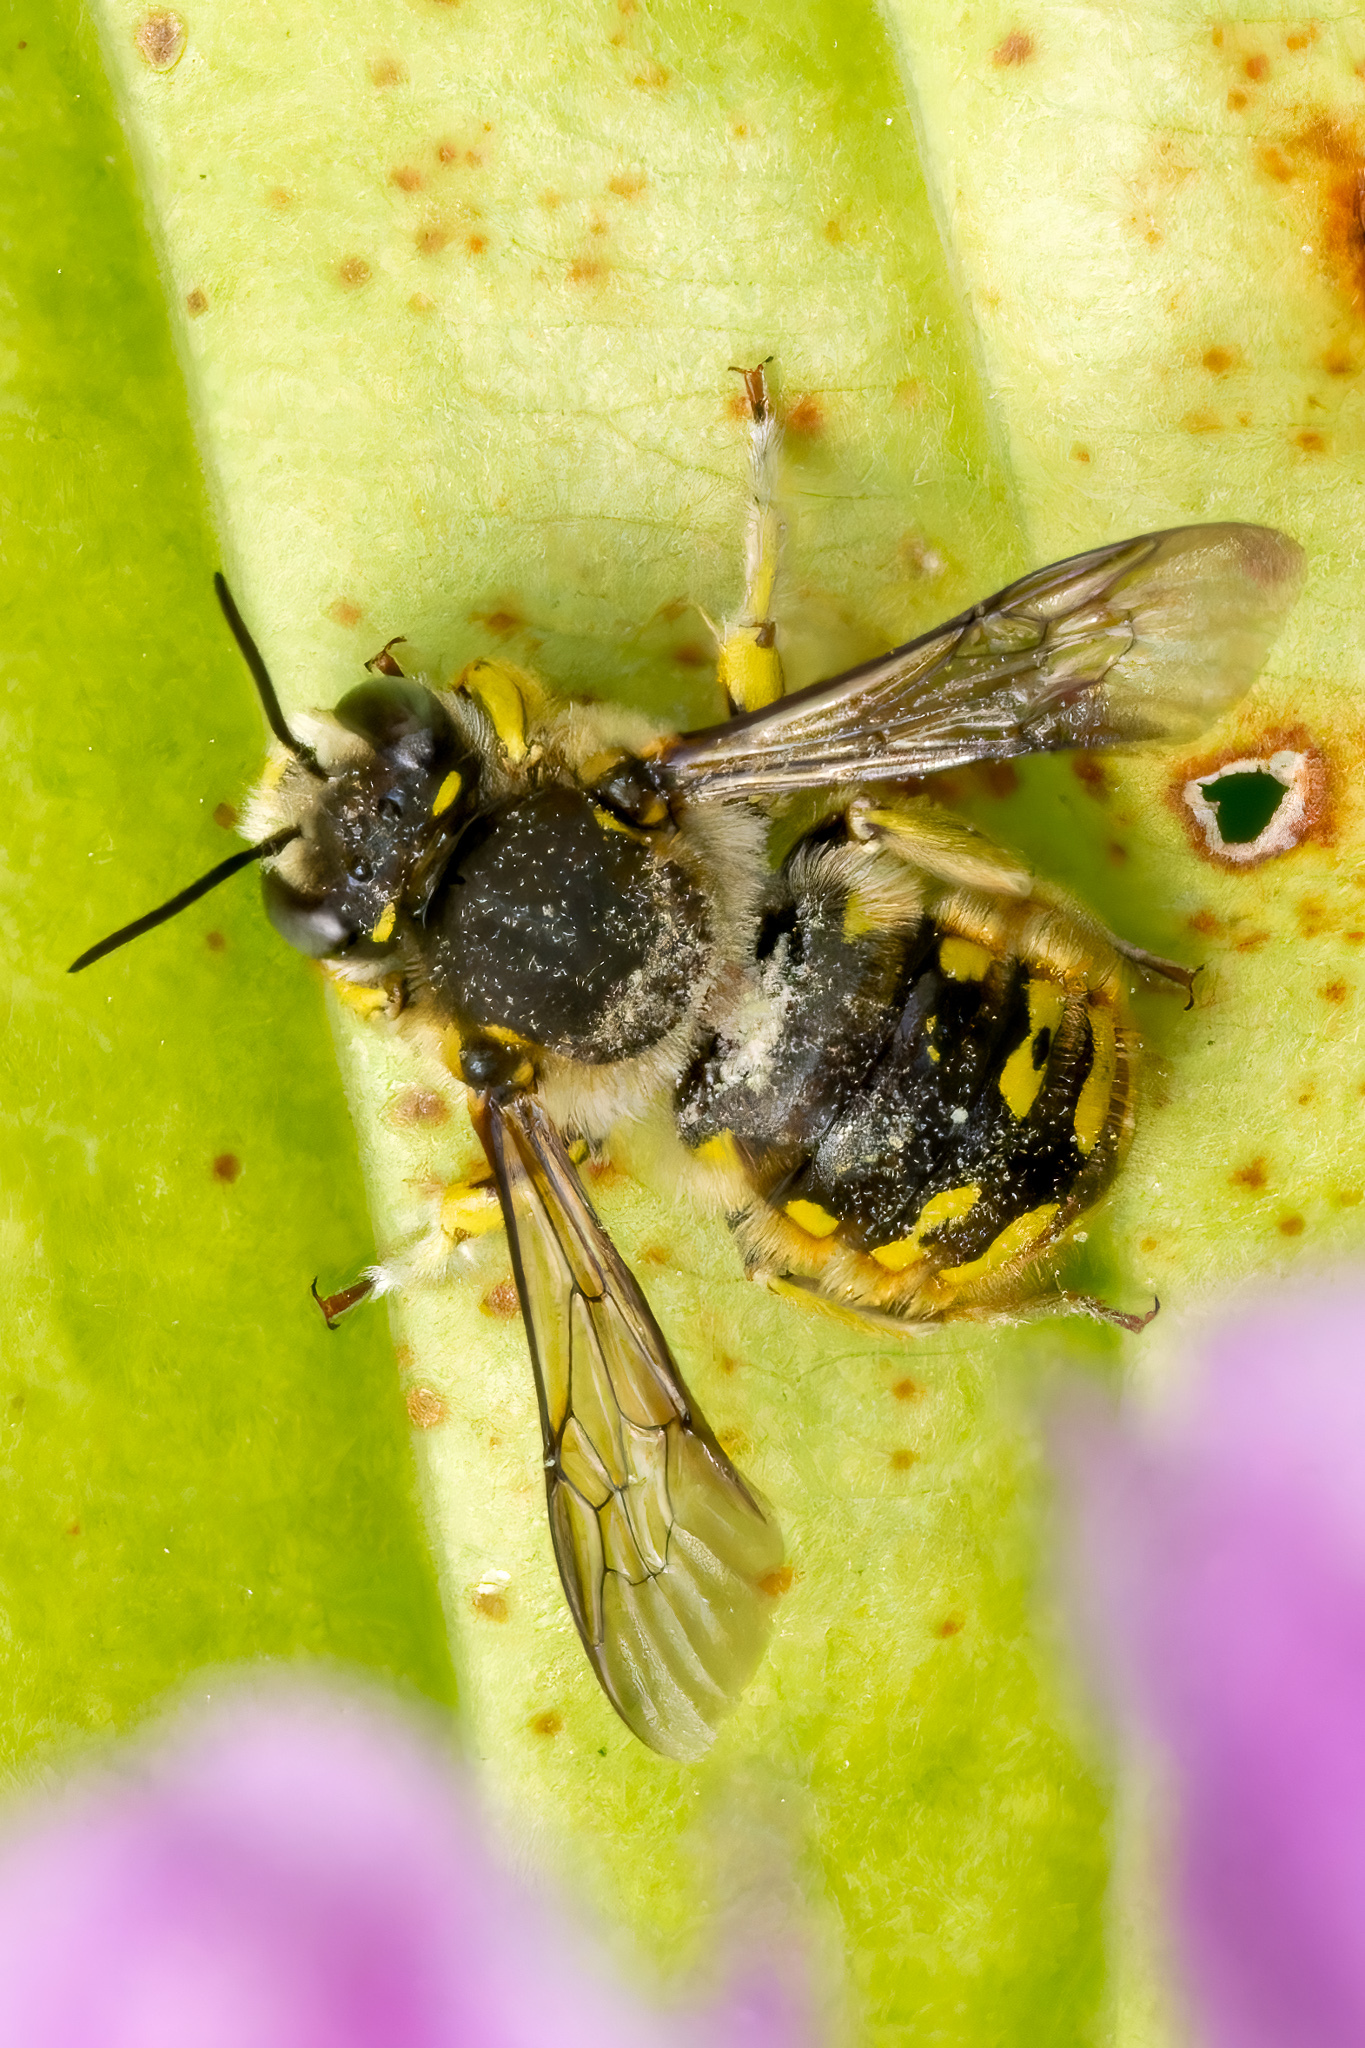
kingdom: Animalia
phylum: Arthropoda
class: Insecta
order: Hymenoptera
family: Megachilidae
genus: Anthidium
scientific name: Anthidium manicatum
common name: Wool carder bee
